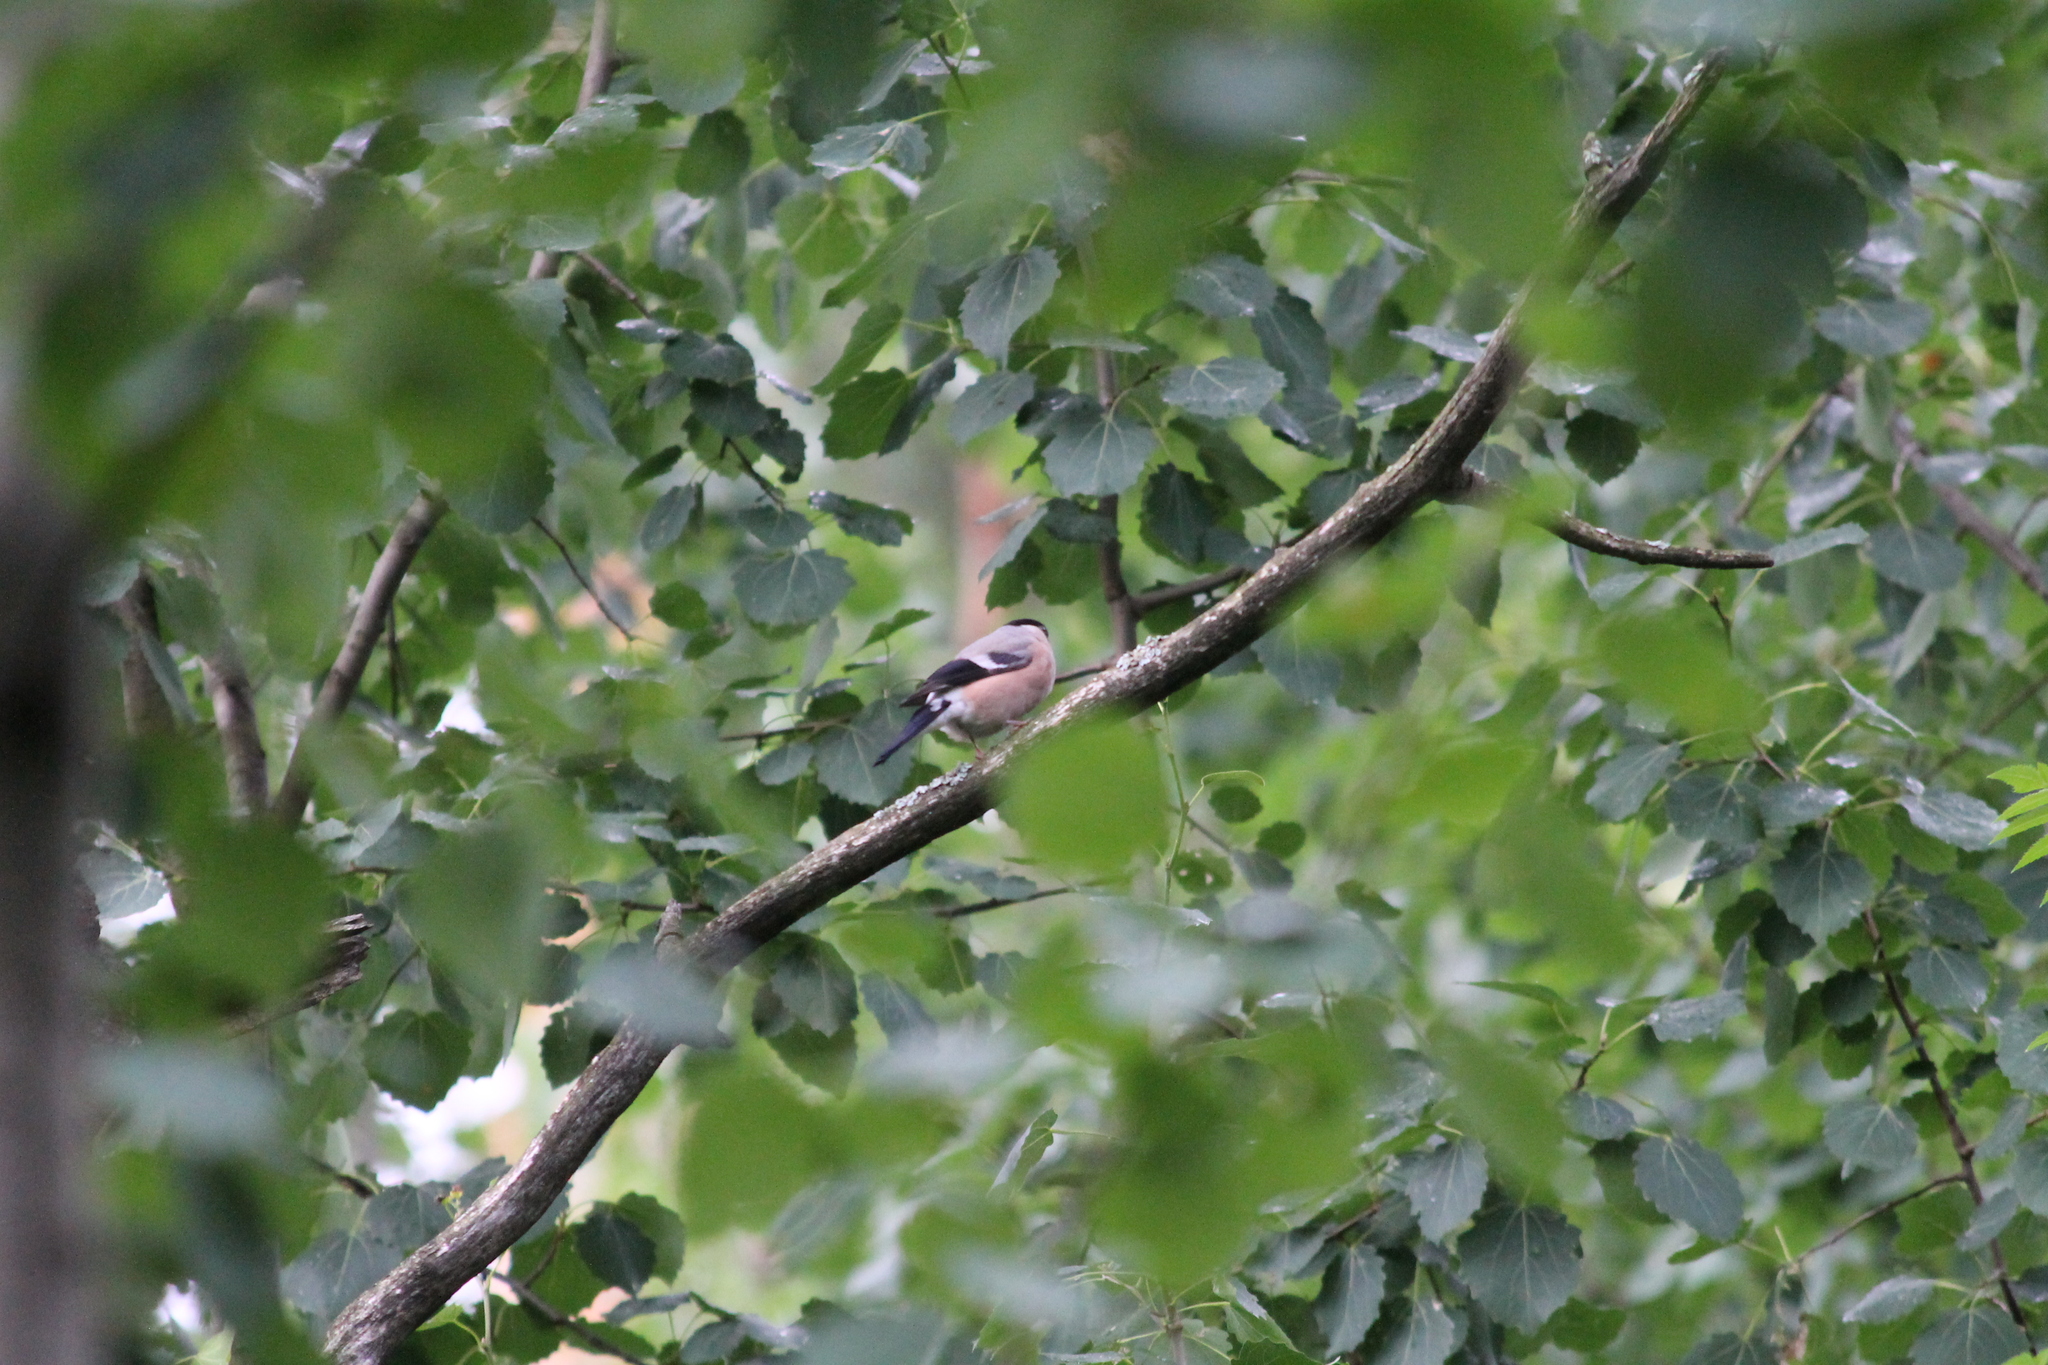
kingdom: Animalia
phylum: Chordata
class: Aves
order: Passeriformes
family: Fringillidae
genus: Pyrrhula
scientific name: Pyrrhula pyrrhula
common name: Eurasian bullfinch
